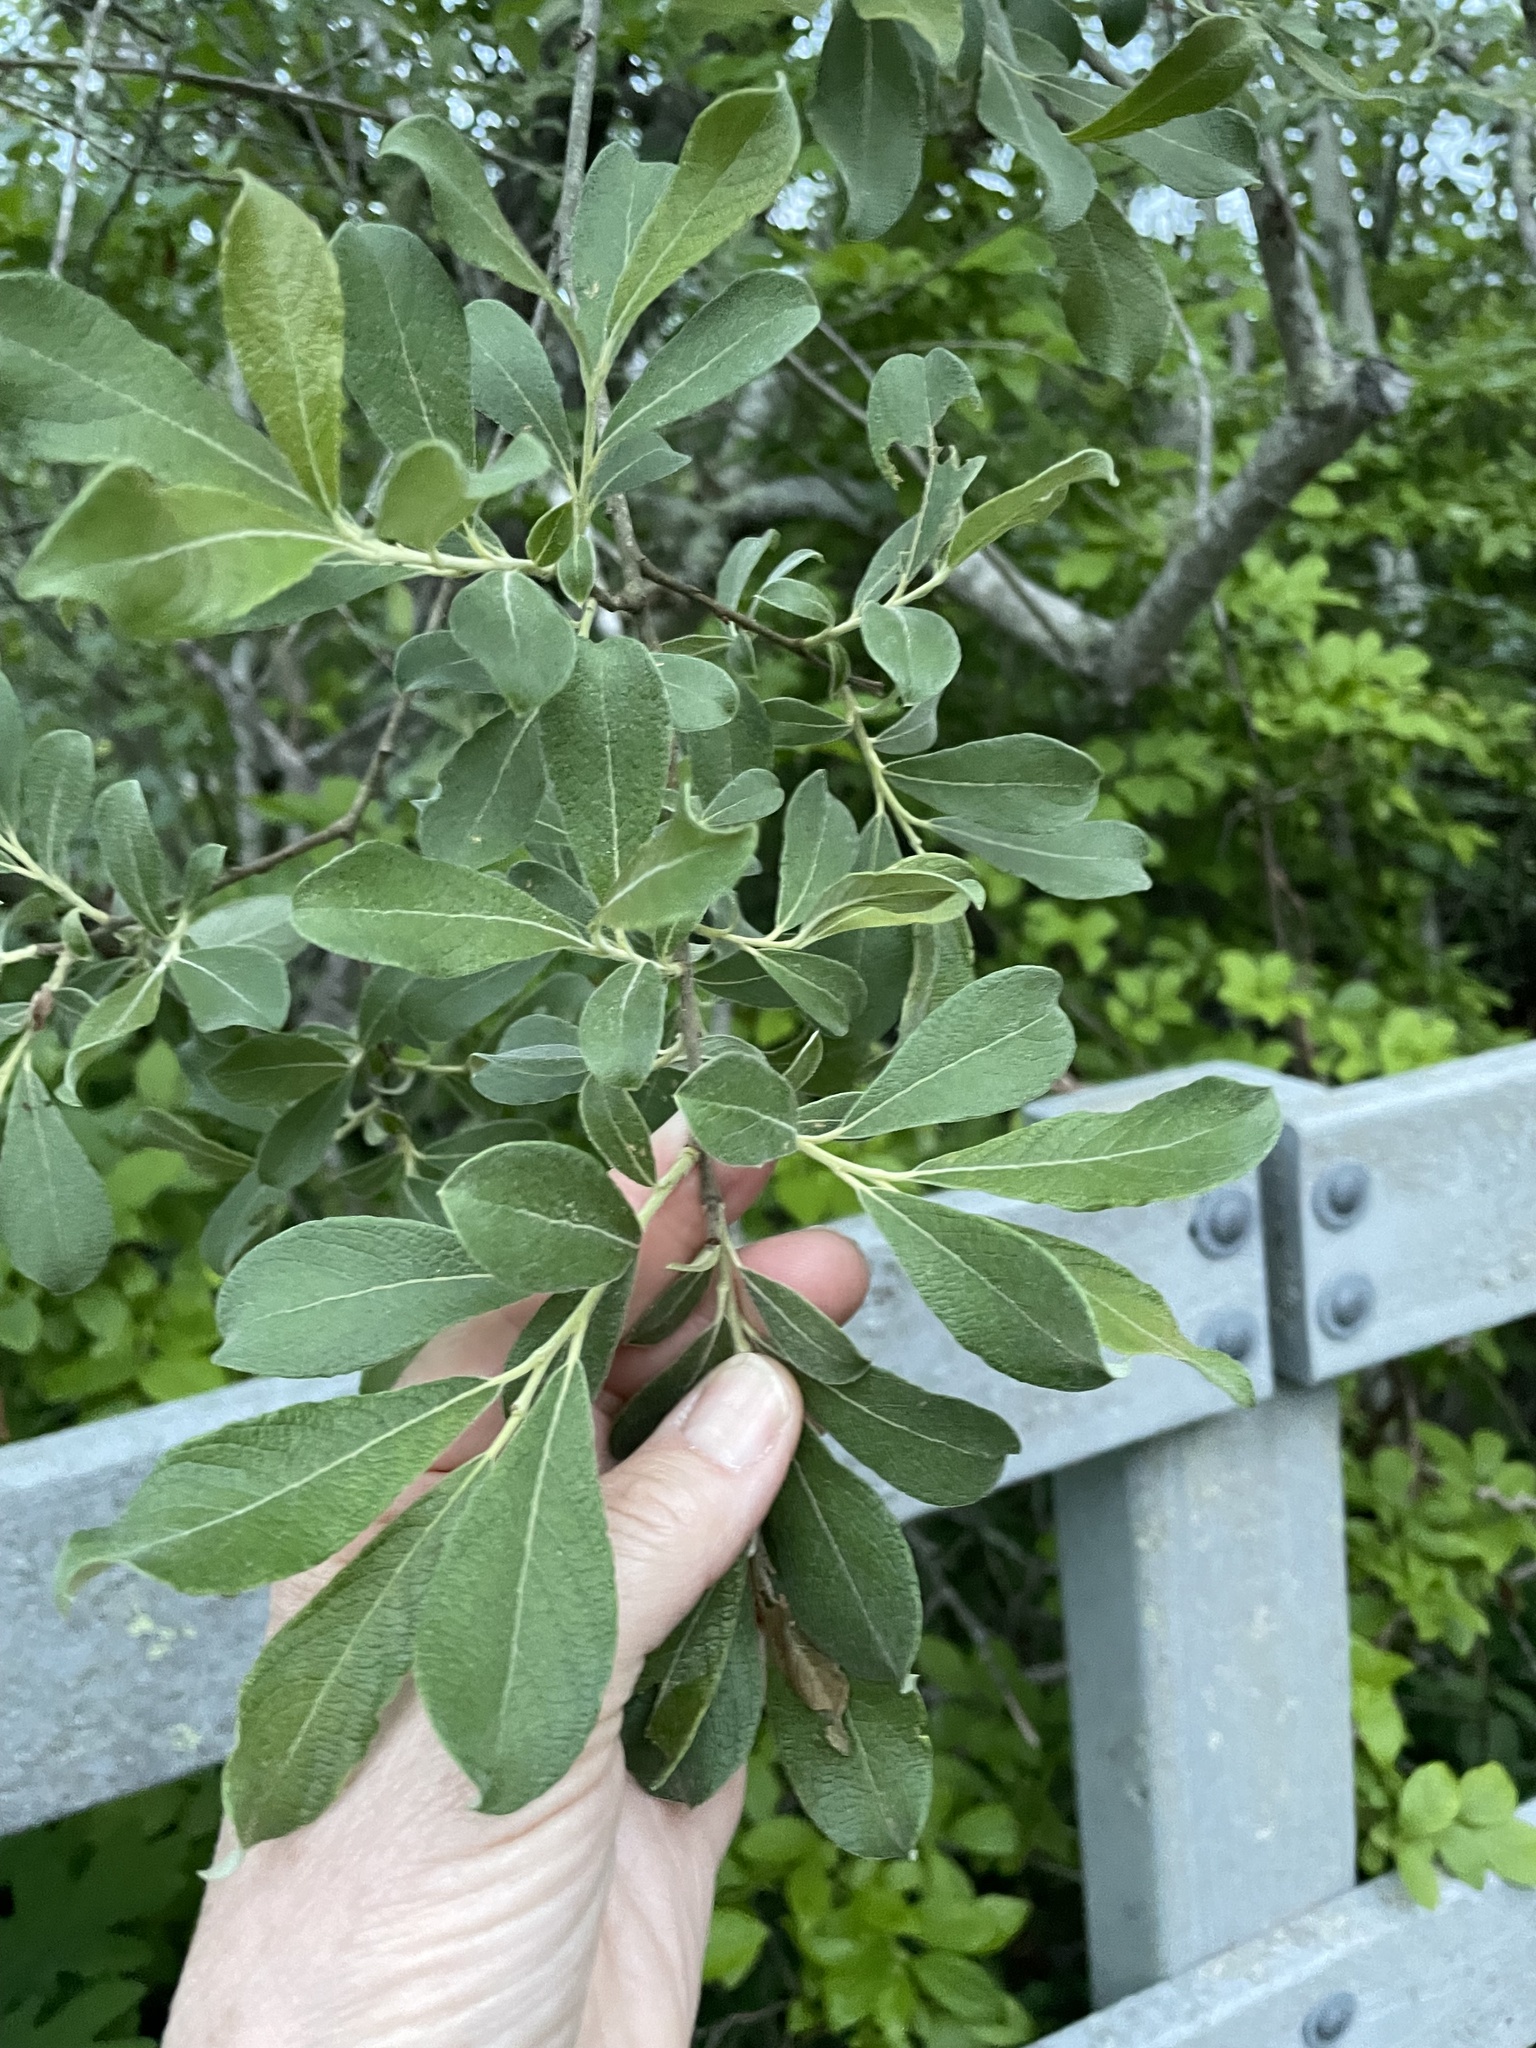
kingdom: Plantae
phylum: Tracheophyta
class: Magnoliopsida
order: Malpighiales
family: Salicaceae
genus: Salix
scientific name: Salix cinerea
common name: Common sallow
